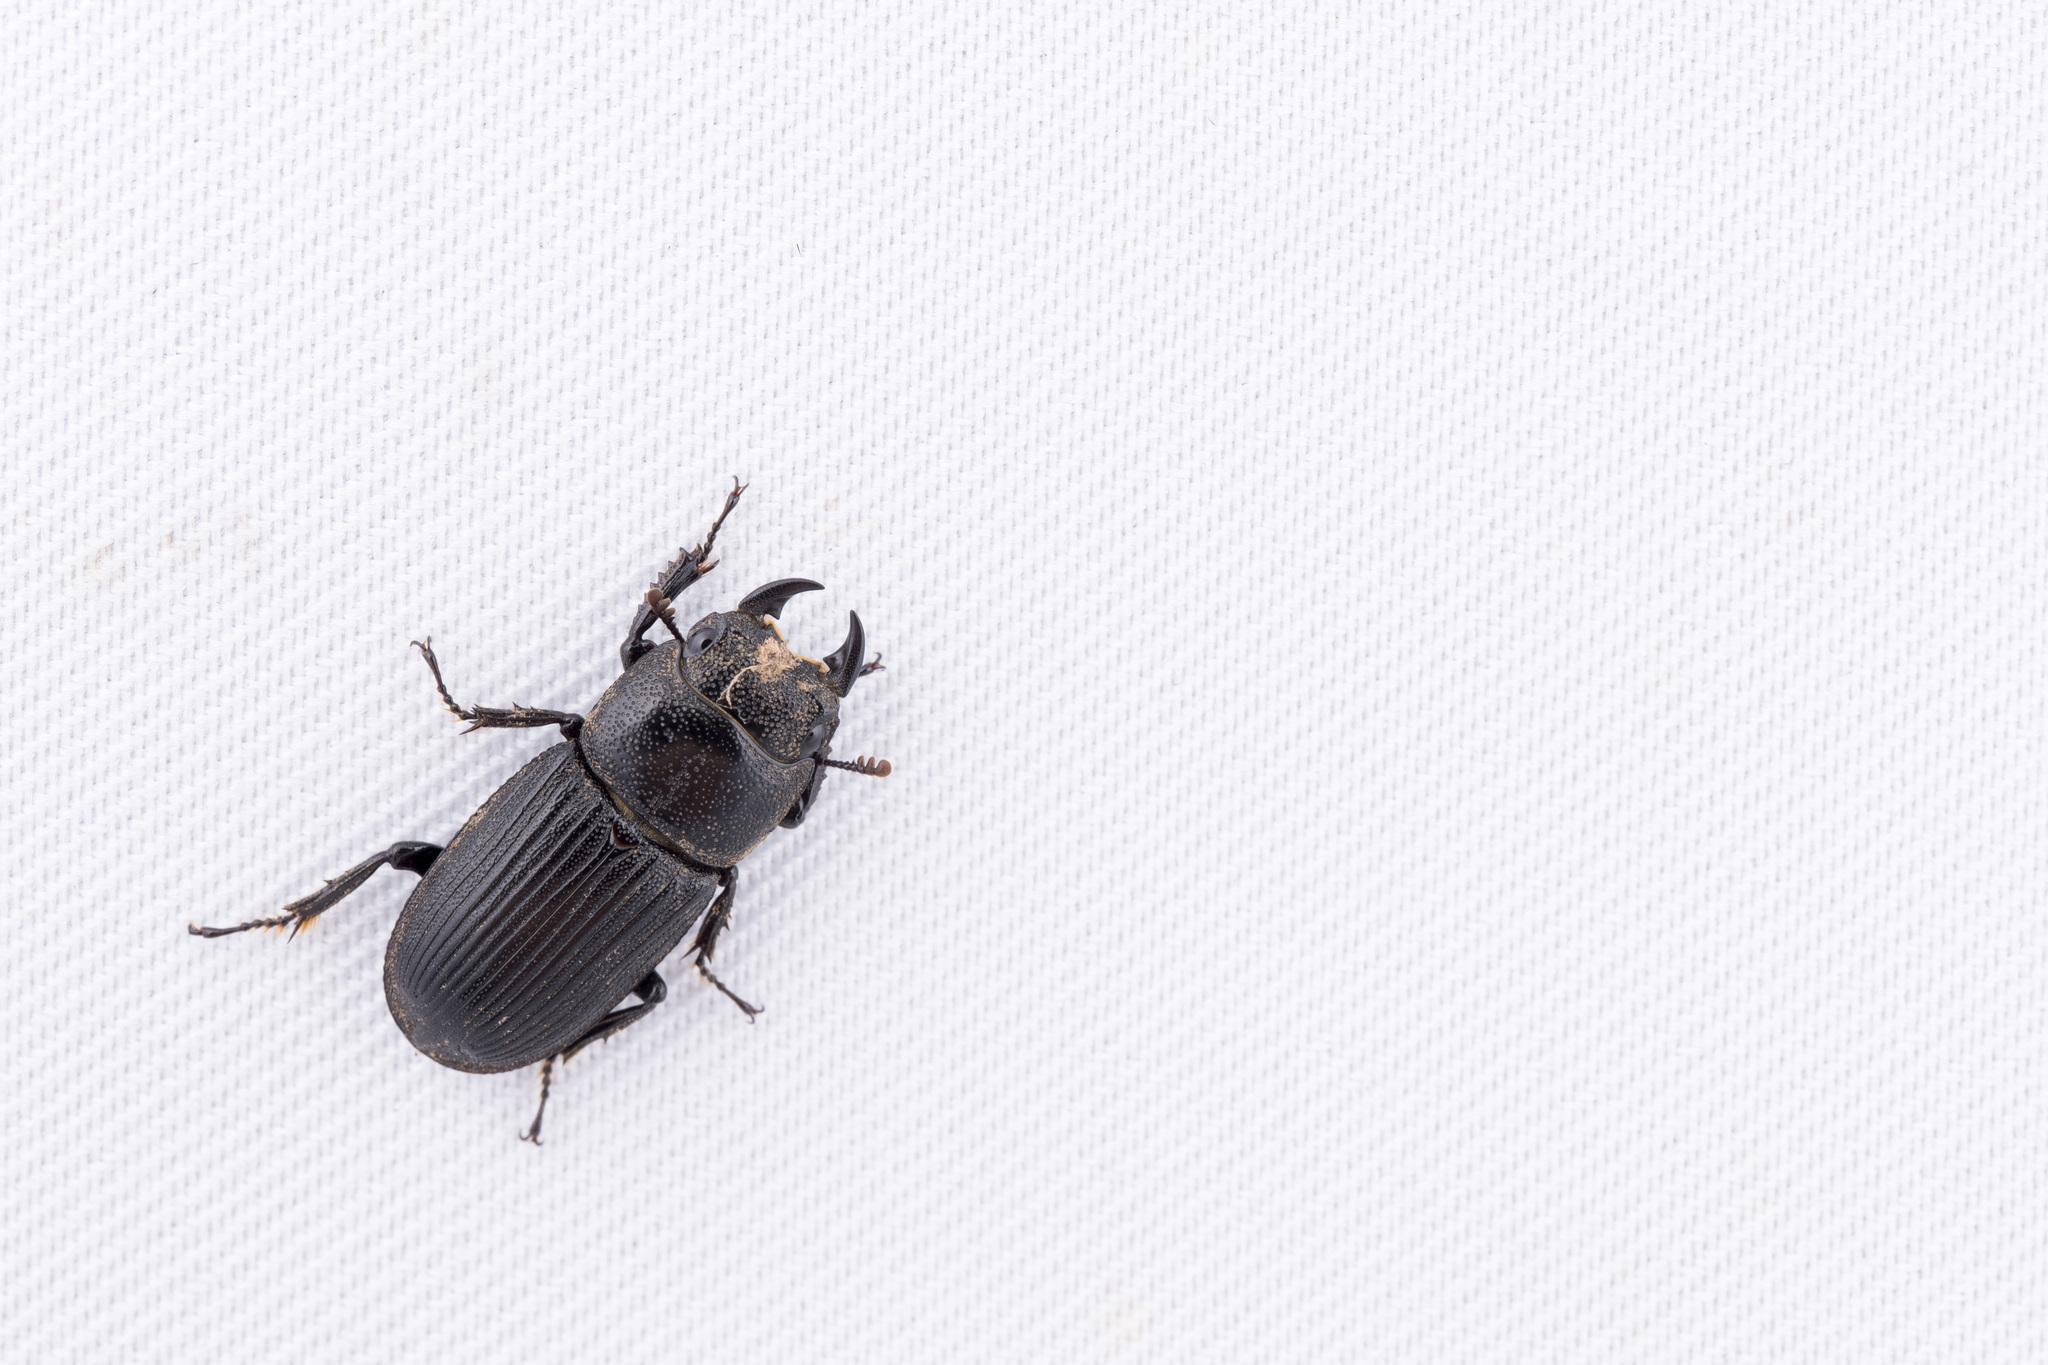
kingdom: Animalia
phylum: Arthropoda
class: Insecta
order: Coleoptera
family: Lucanidae
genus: Aegus
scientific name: Aegus laevicollis
